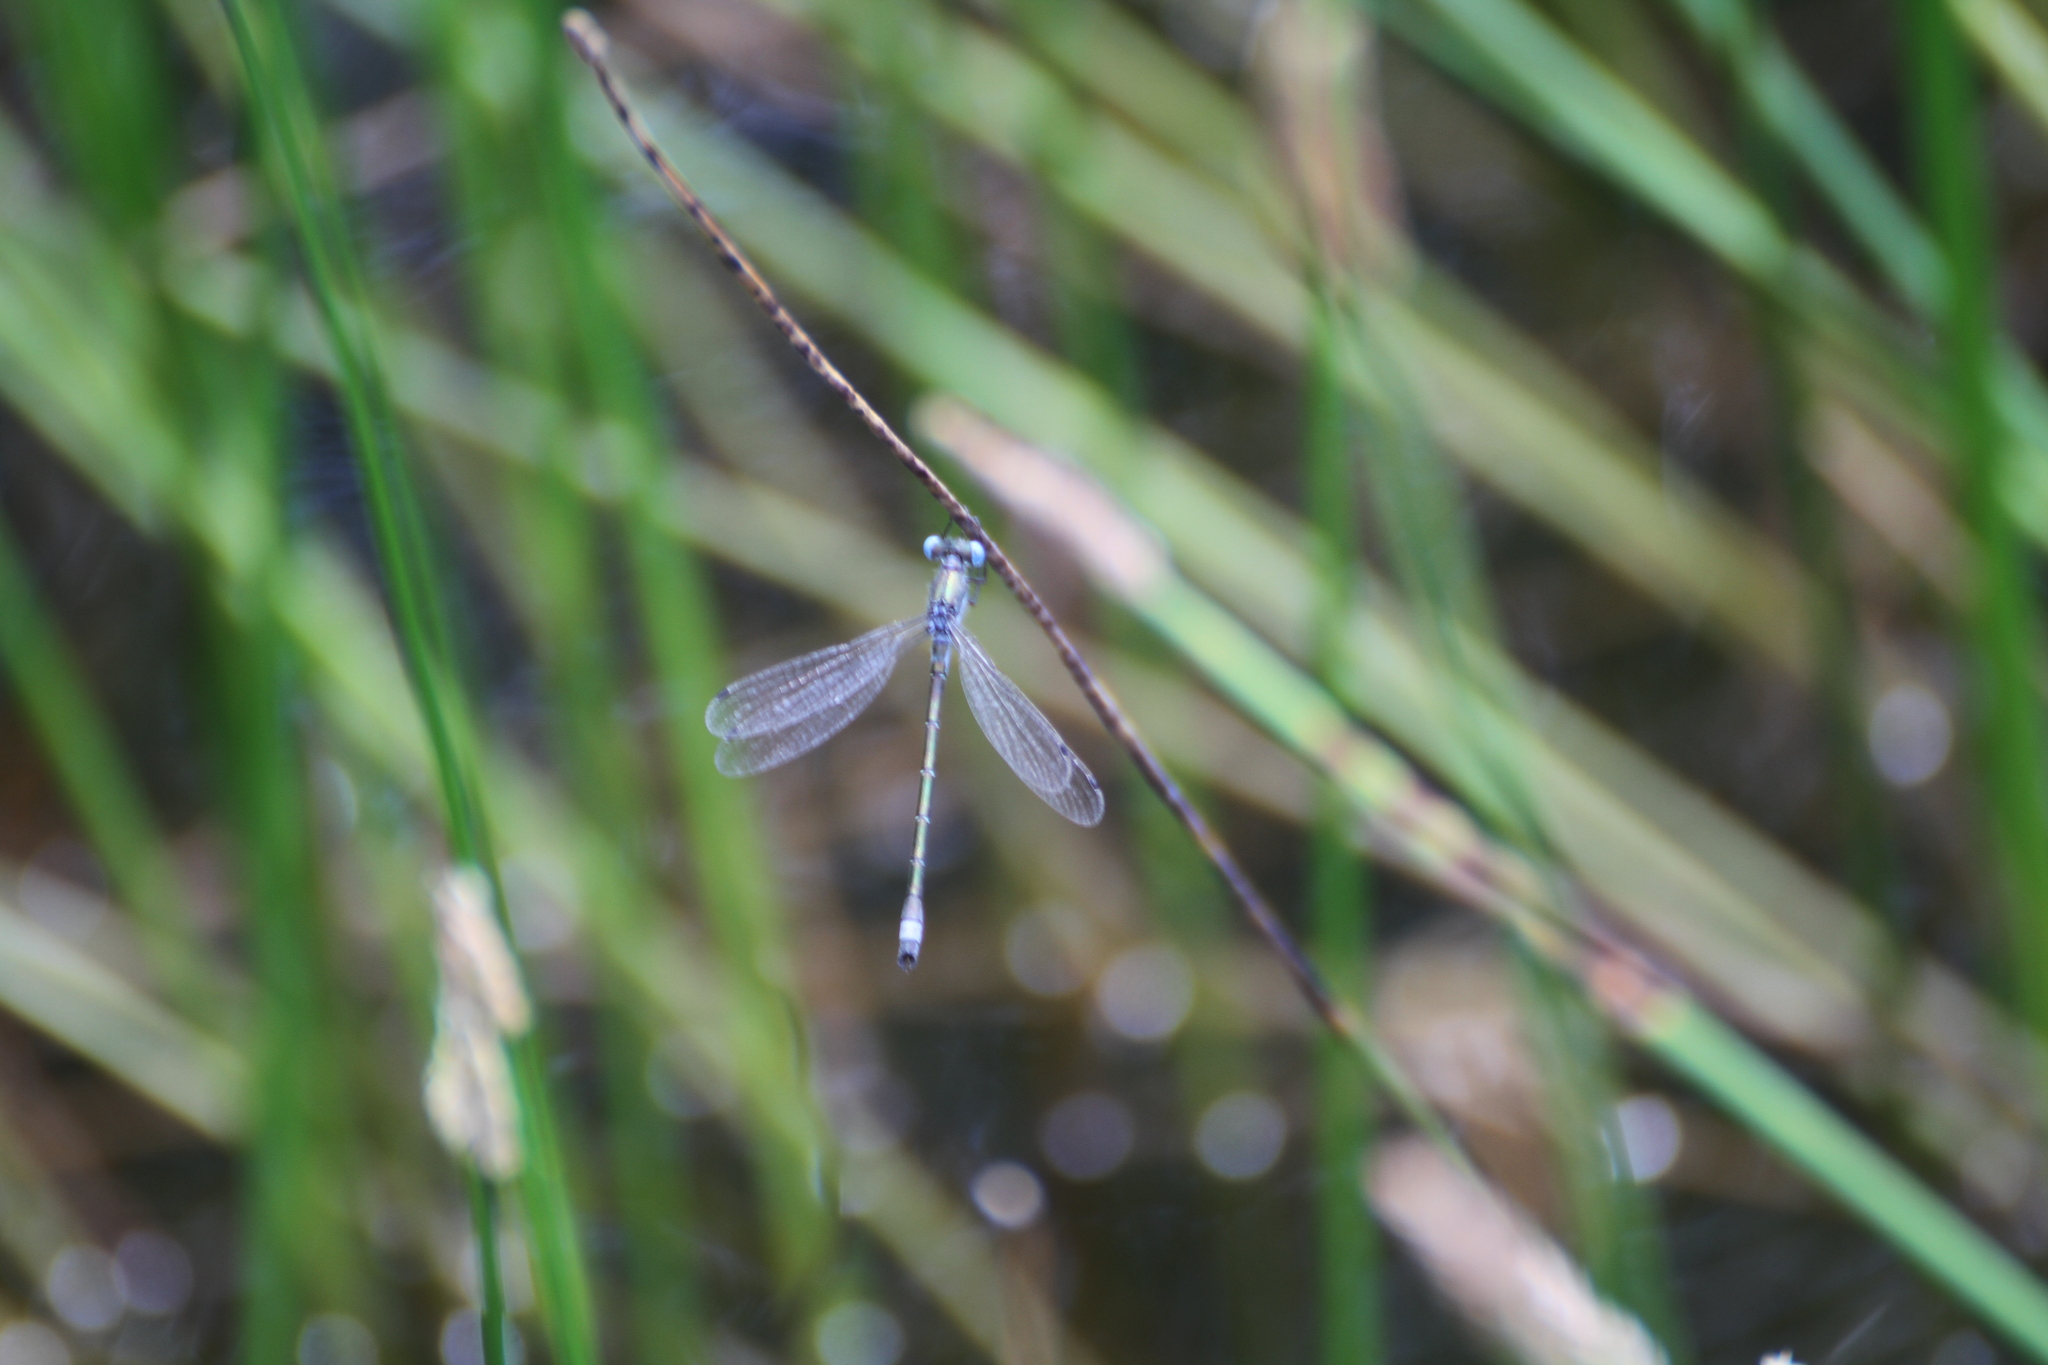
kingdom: Animalia
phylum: Arthropoda
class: Insecta
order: Odonata
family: Lestidae
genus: Lestes
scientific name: Lestes dryas
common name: Scarce emerald damselfly
